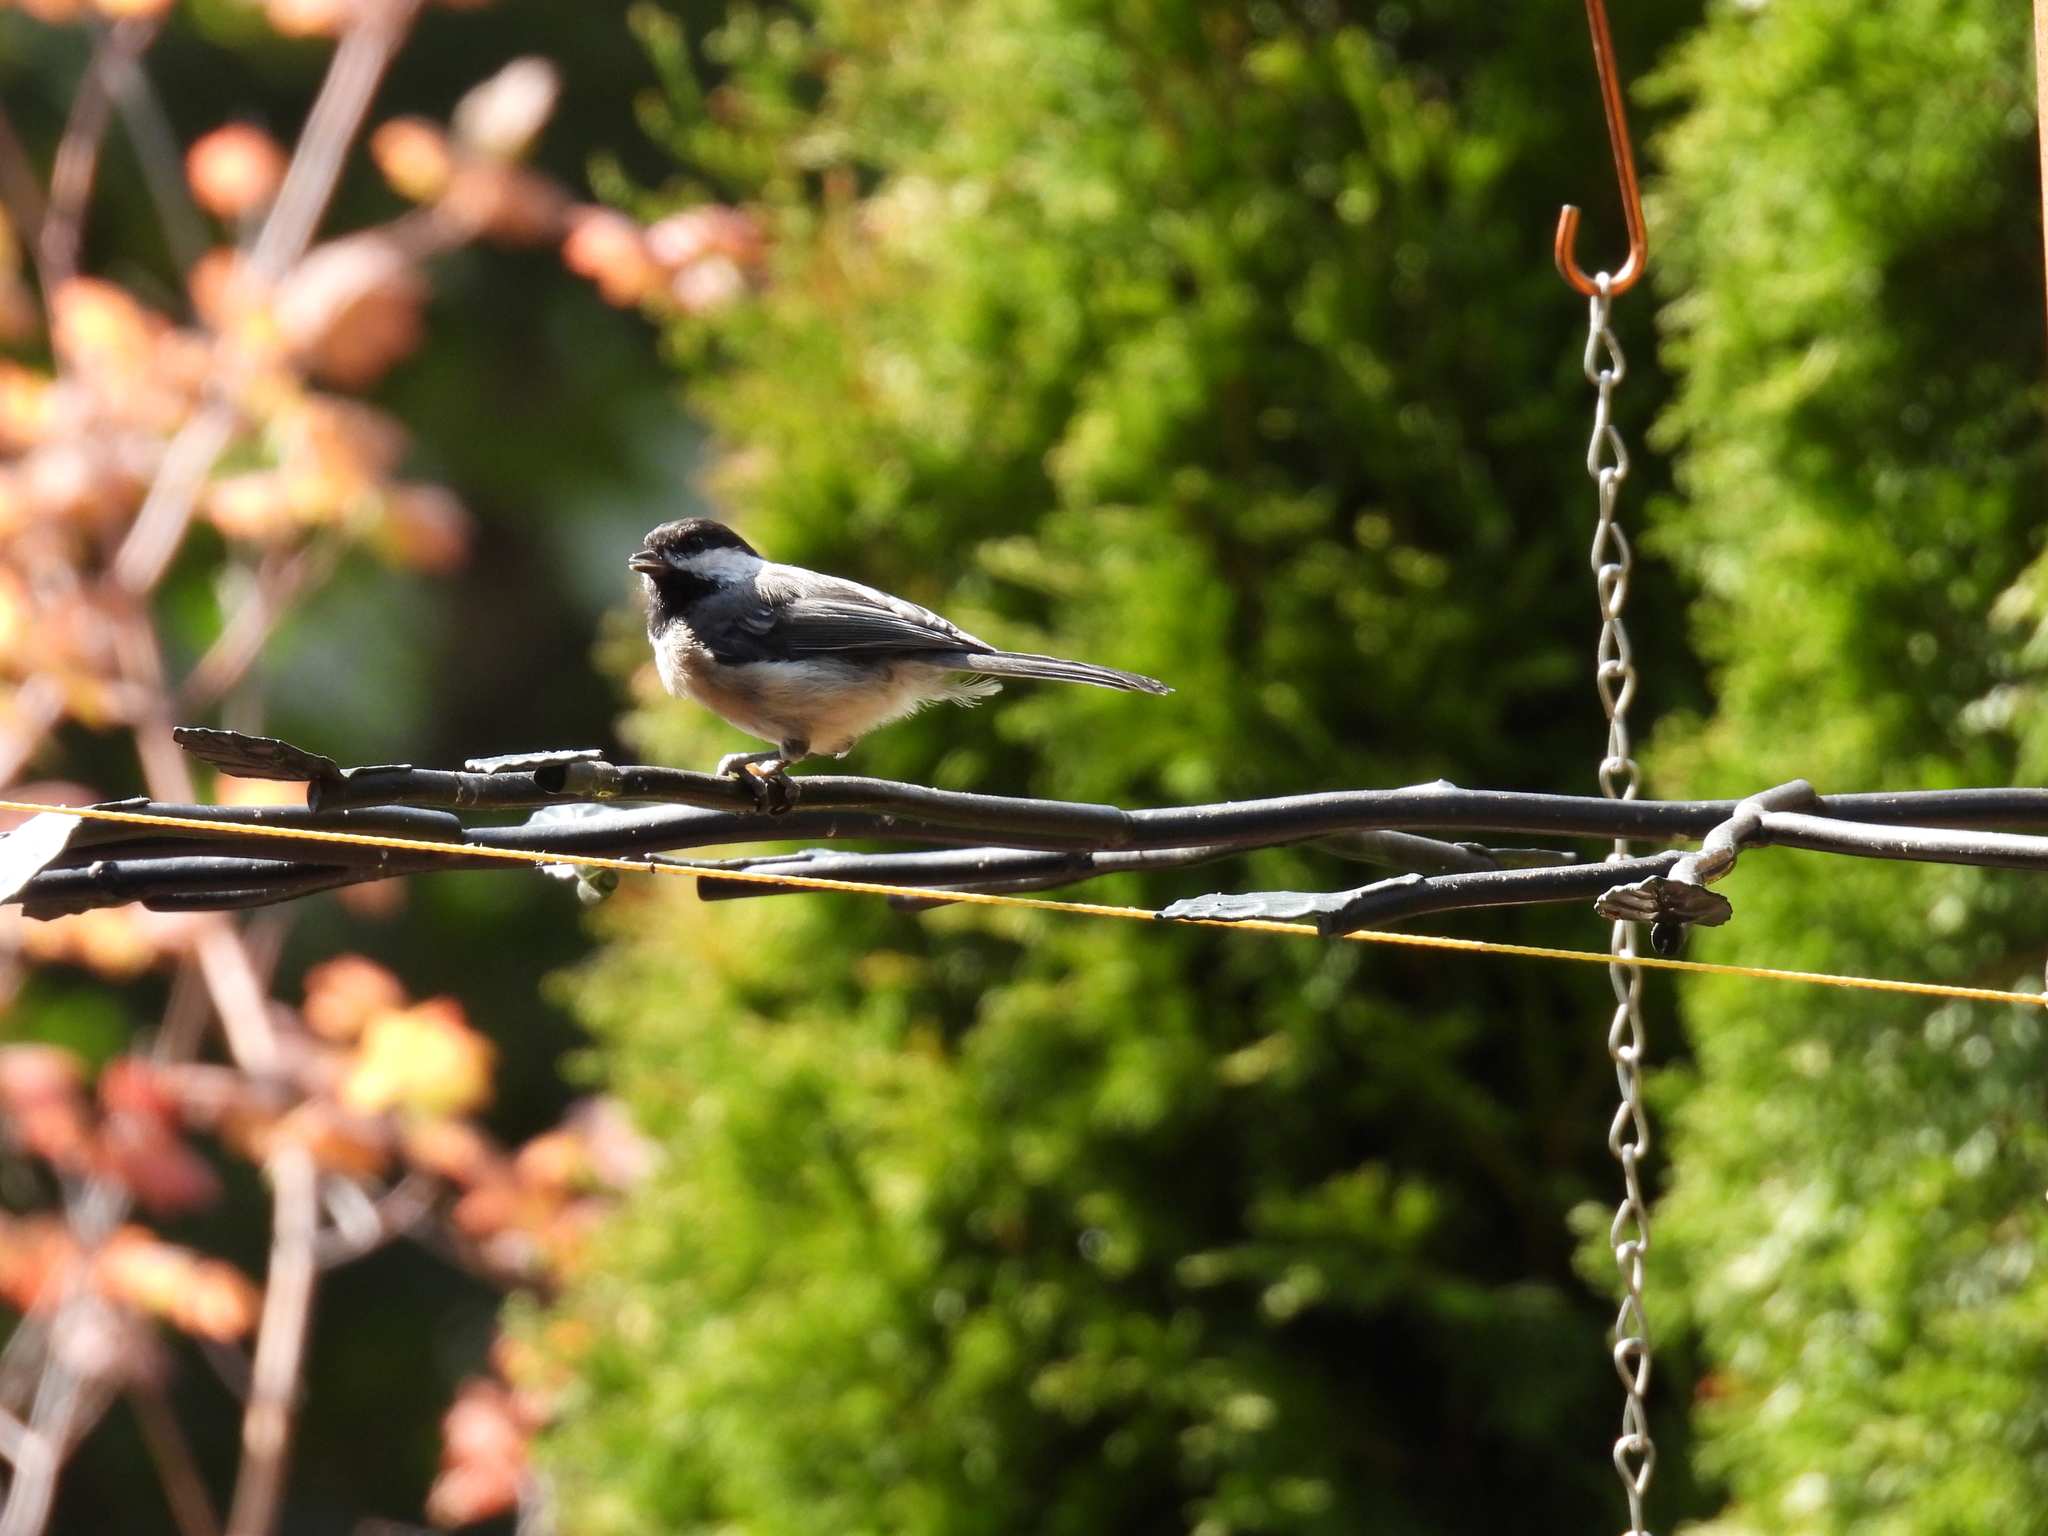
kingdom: Animalia
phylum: Chordata
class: Aves
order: Passeriformes
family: Paridae
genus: Poecile
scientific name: Poecile atricapillus
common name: Black-capped chickadee
